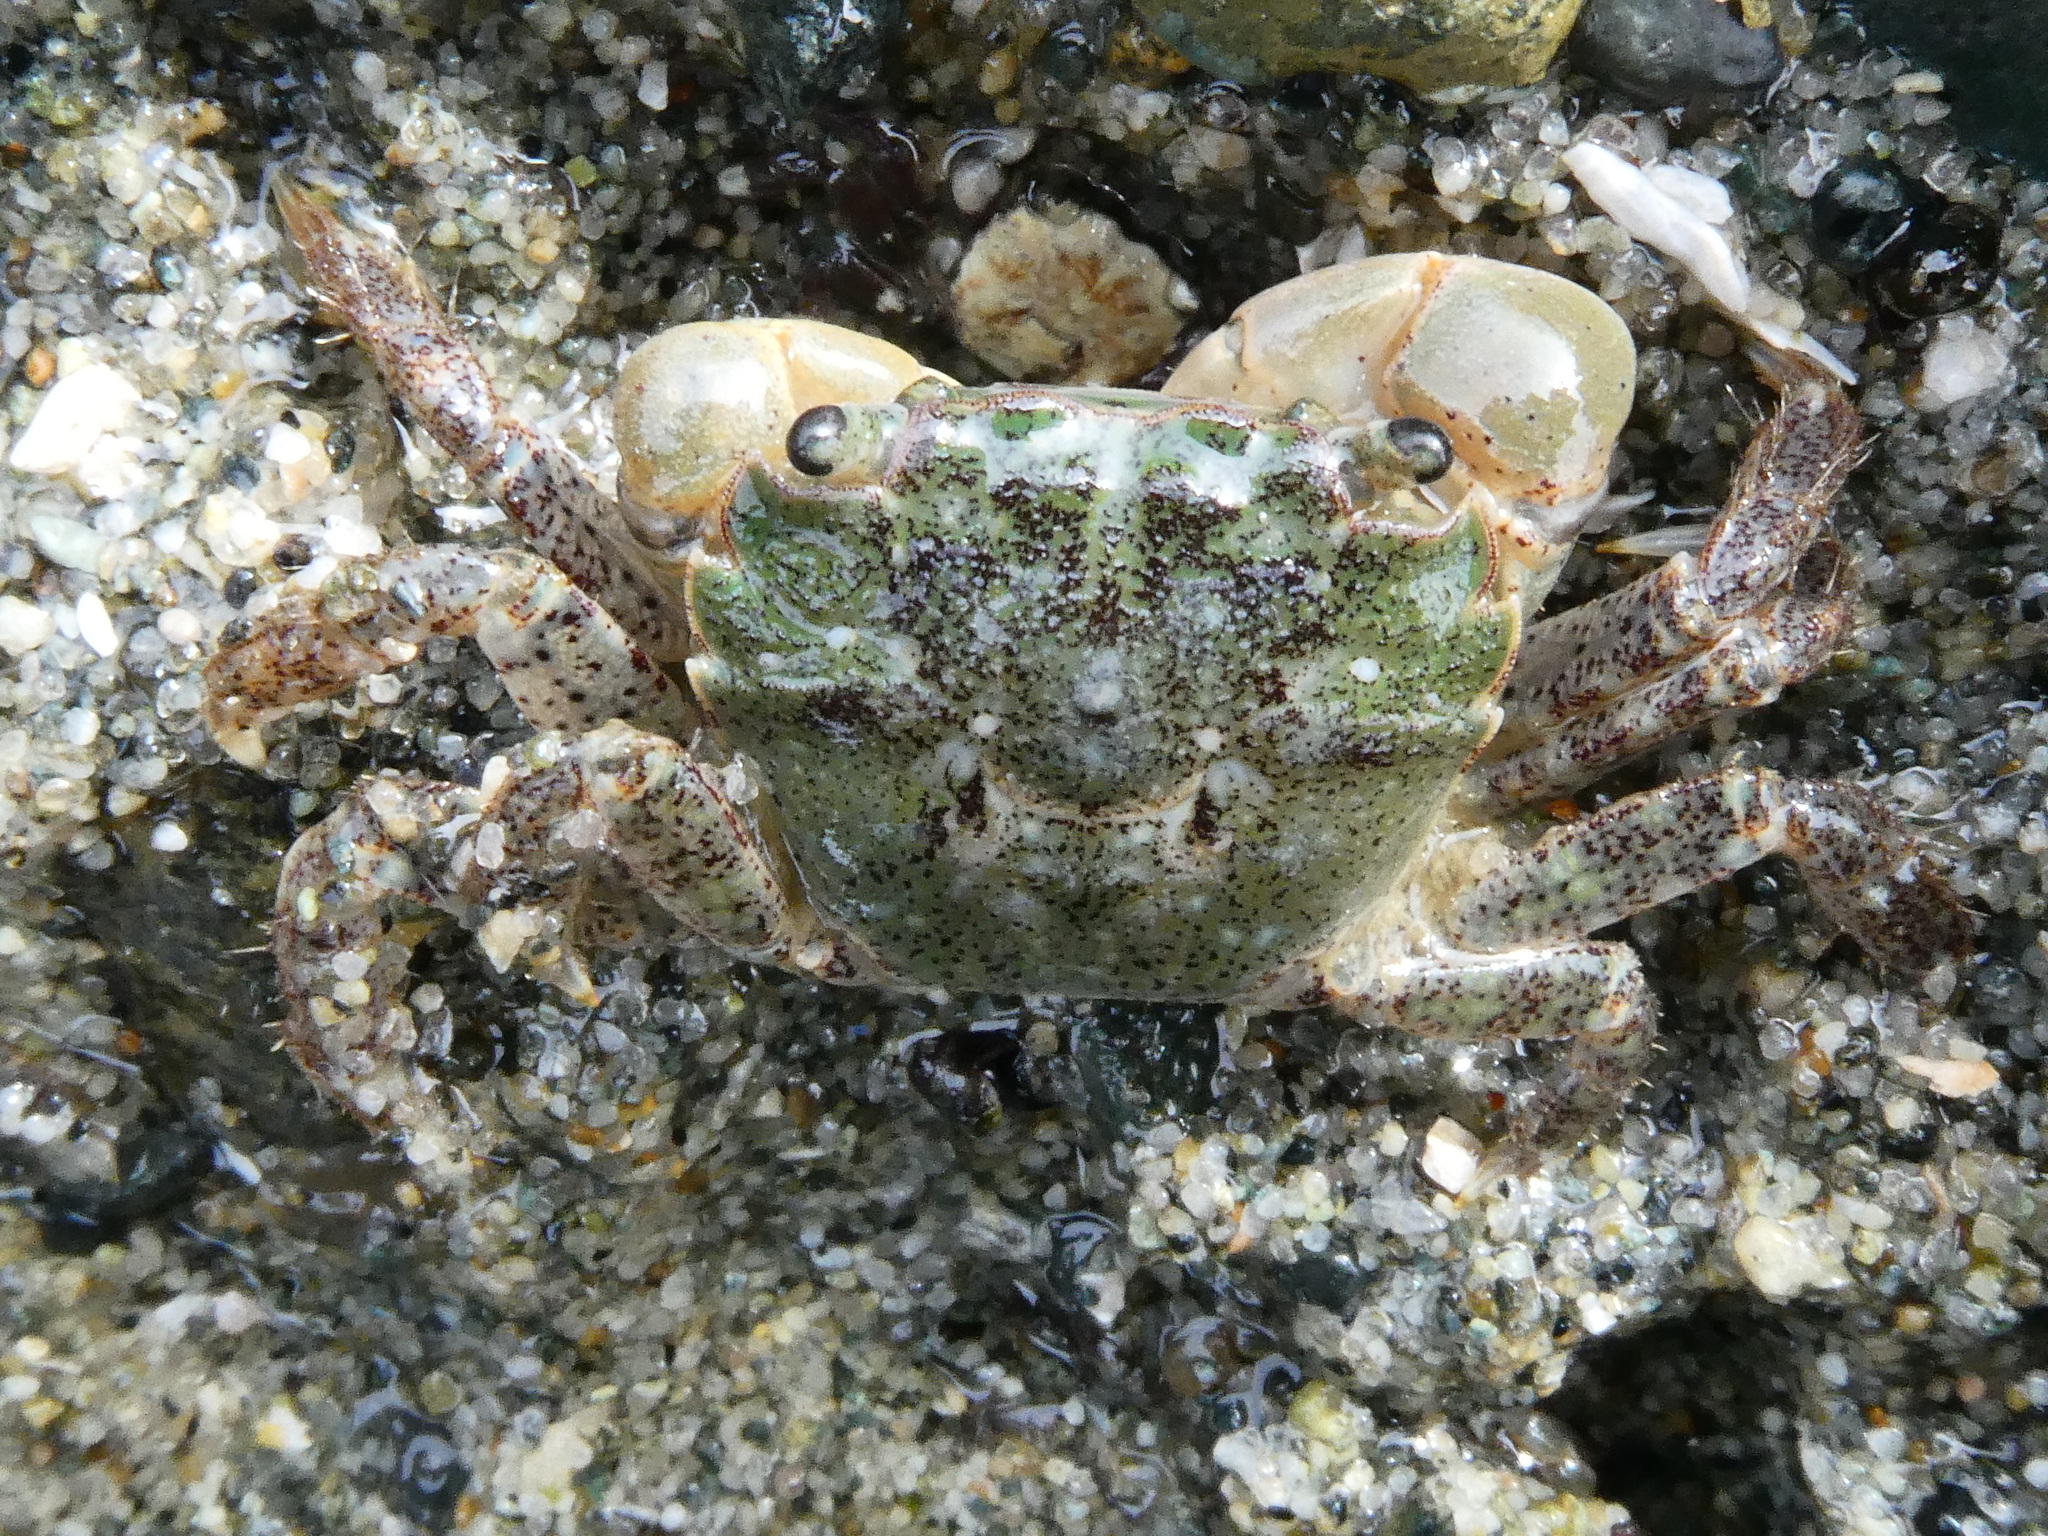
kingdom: Animalia
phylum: Arthropoda
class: Malacostraca
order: Decapoda
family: Varunidae
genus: Hemigrapsus
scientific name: Hemigrapsus oregonensis
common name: Yellow shore crab
